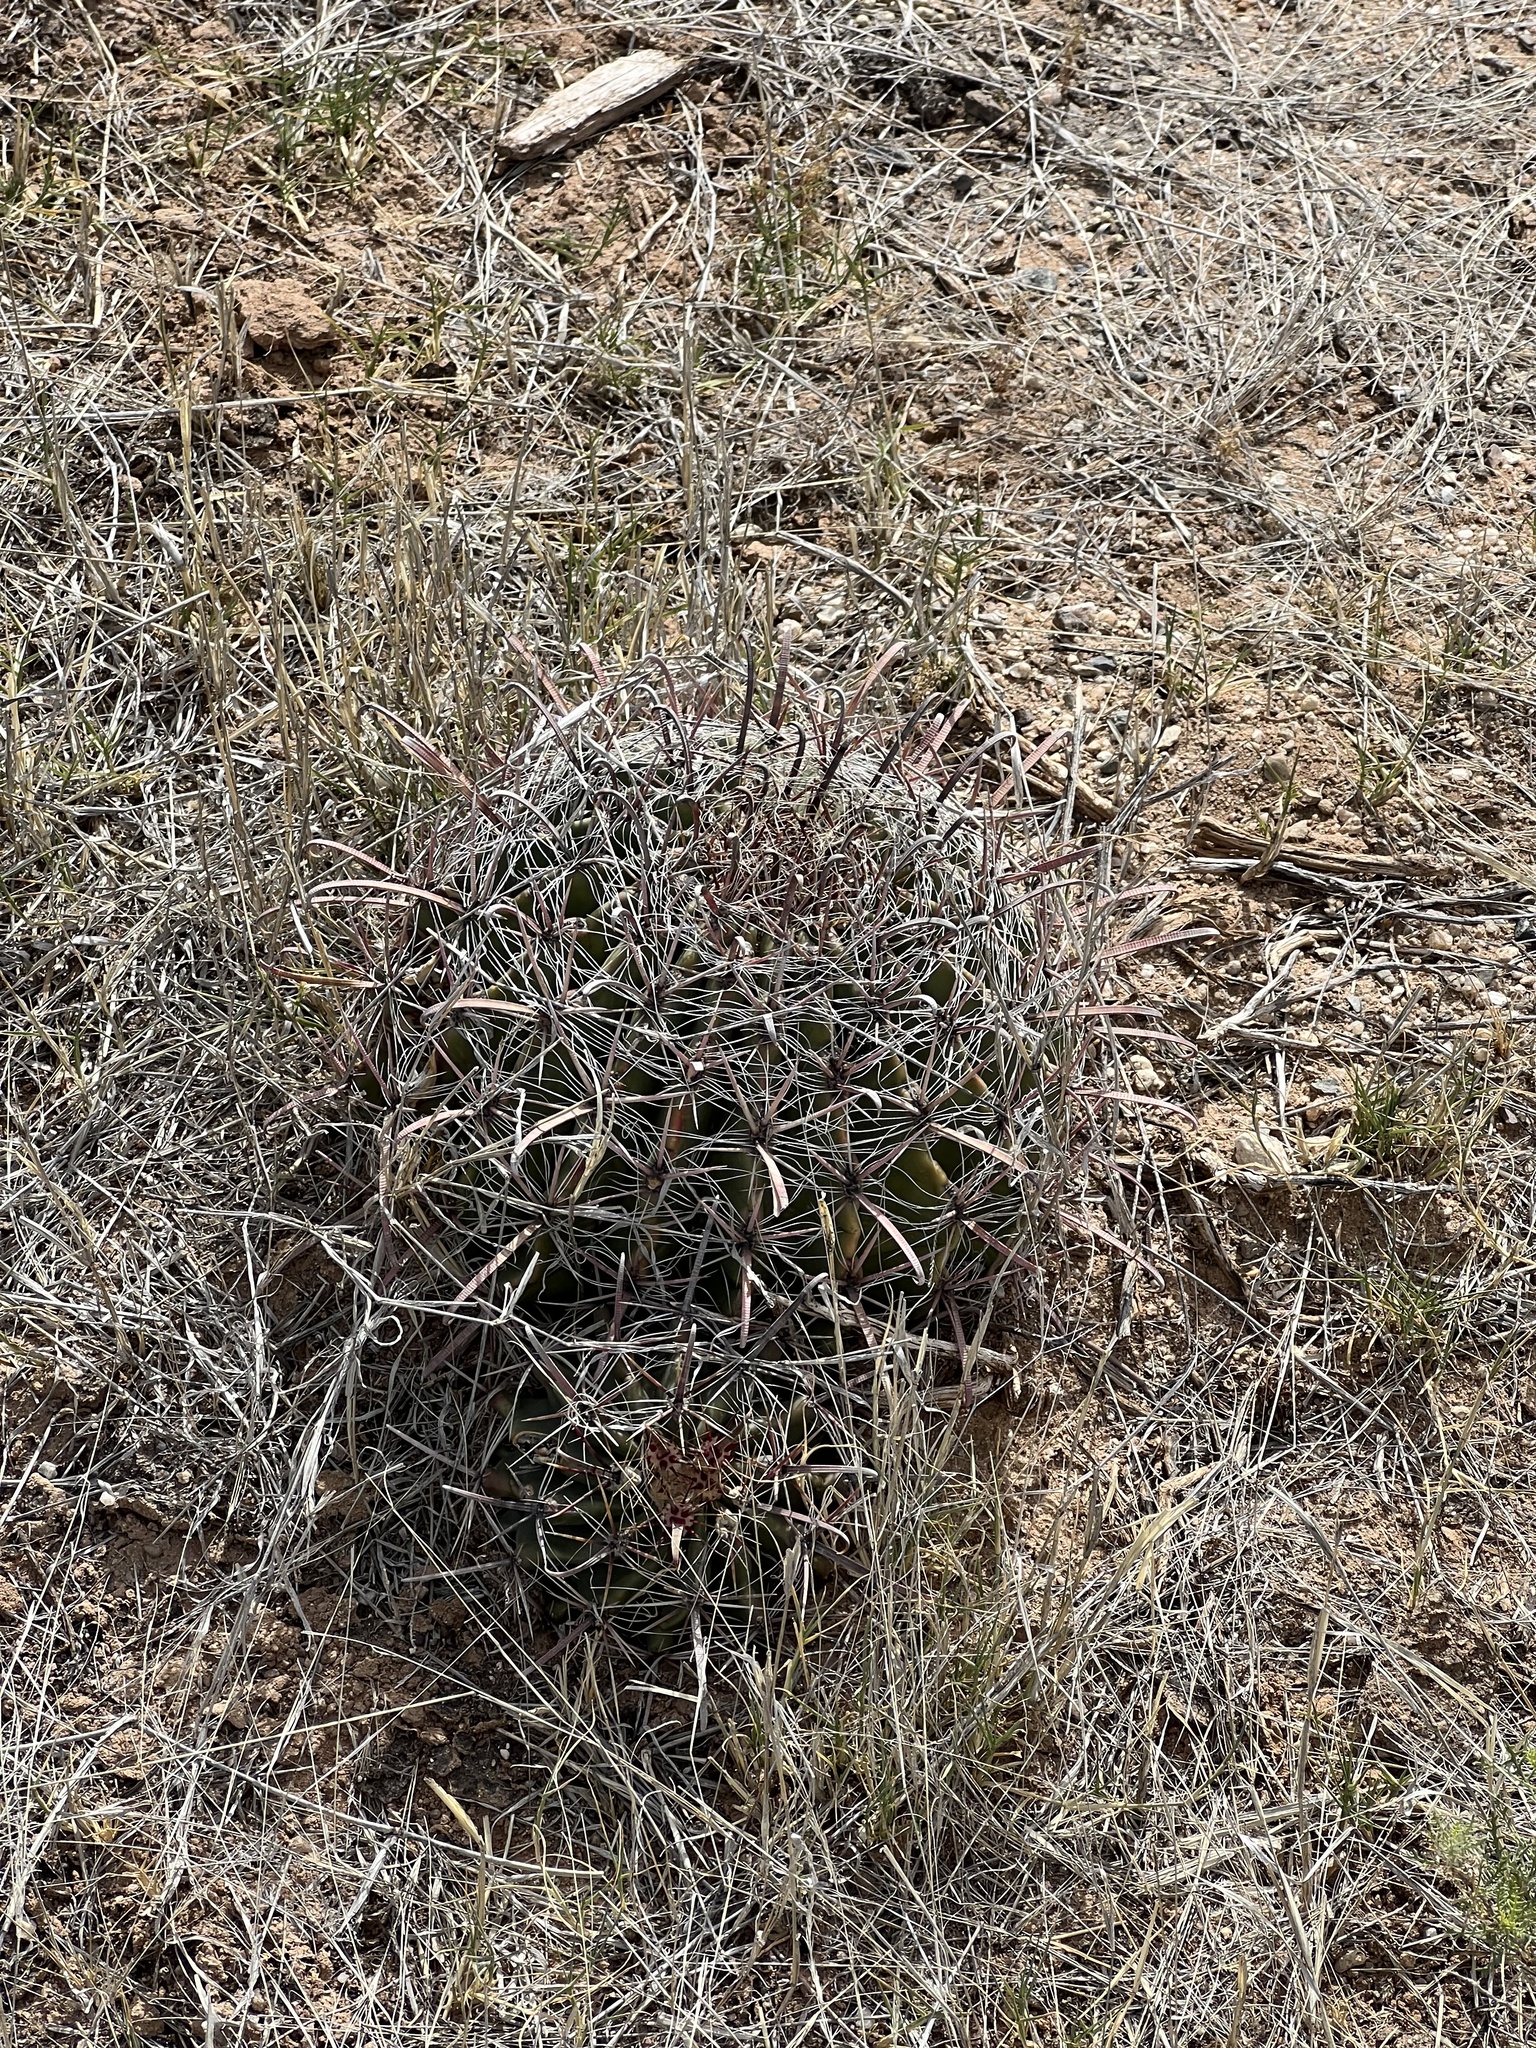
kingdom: Plantae
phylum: Tracheophyta
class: Magnoliopsida
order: Caryophyllales
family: Cactaceae
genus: Ferocactus
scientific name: Ferocactus wislizeni
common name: Candy barrel cactus
